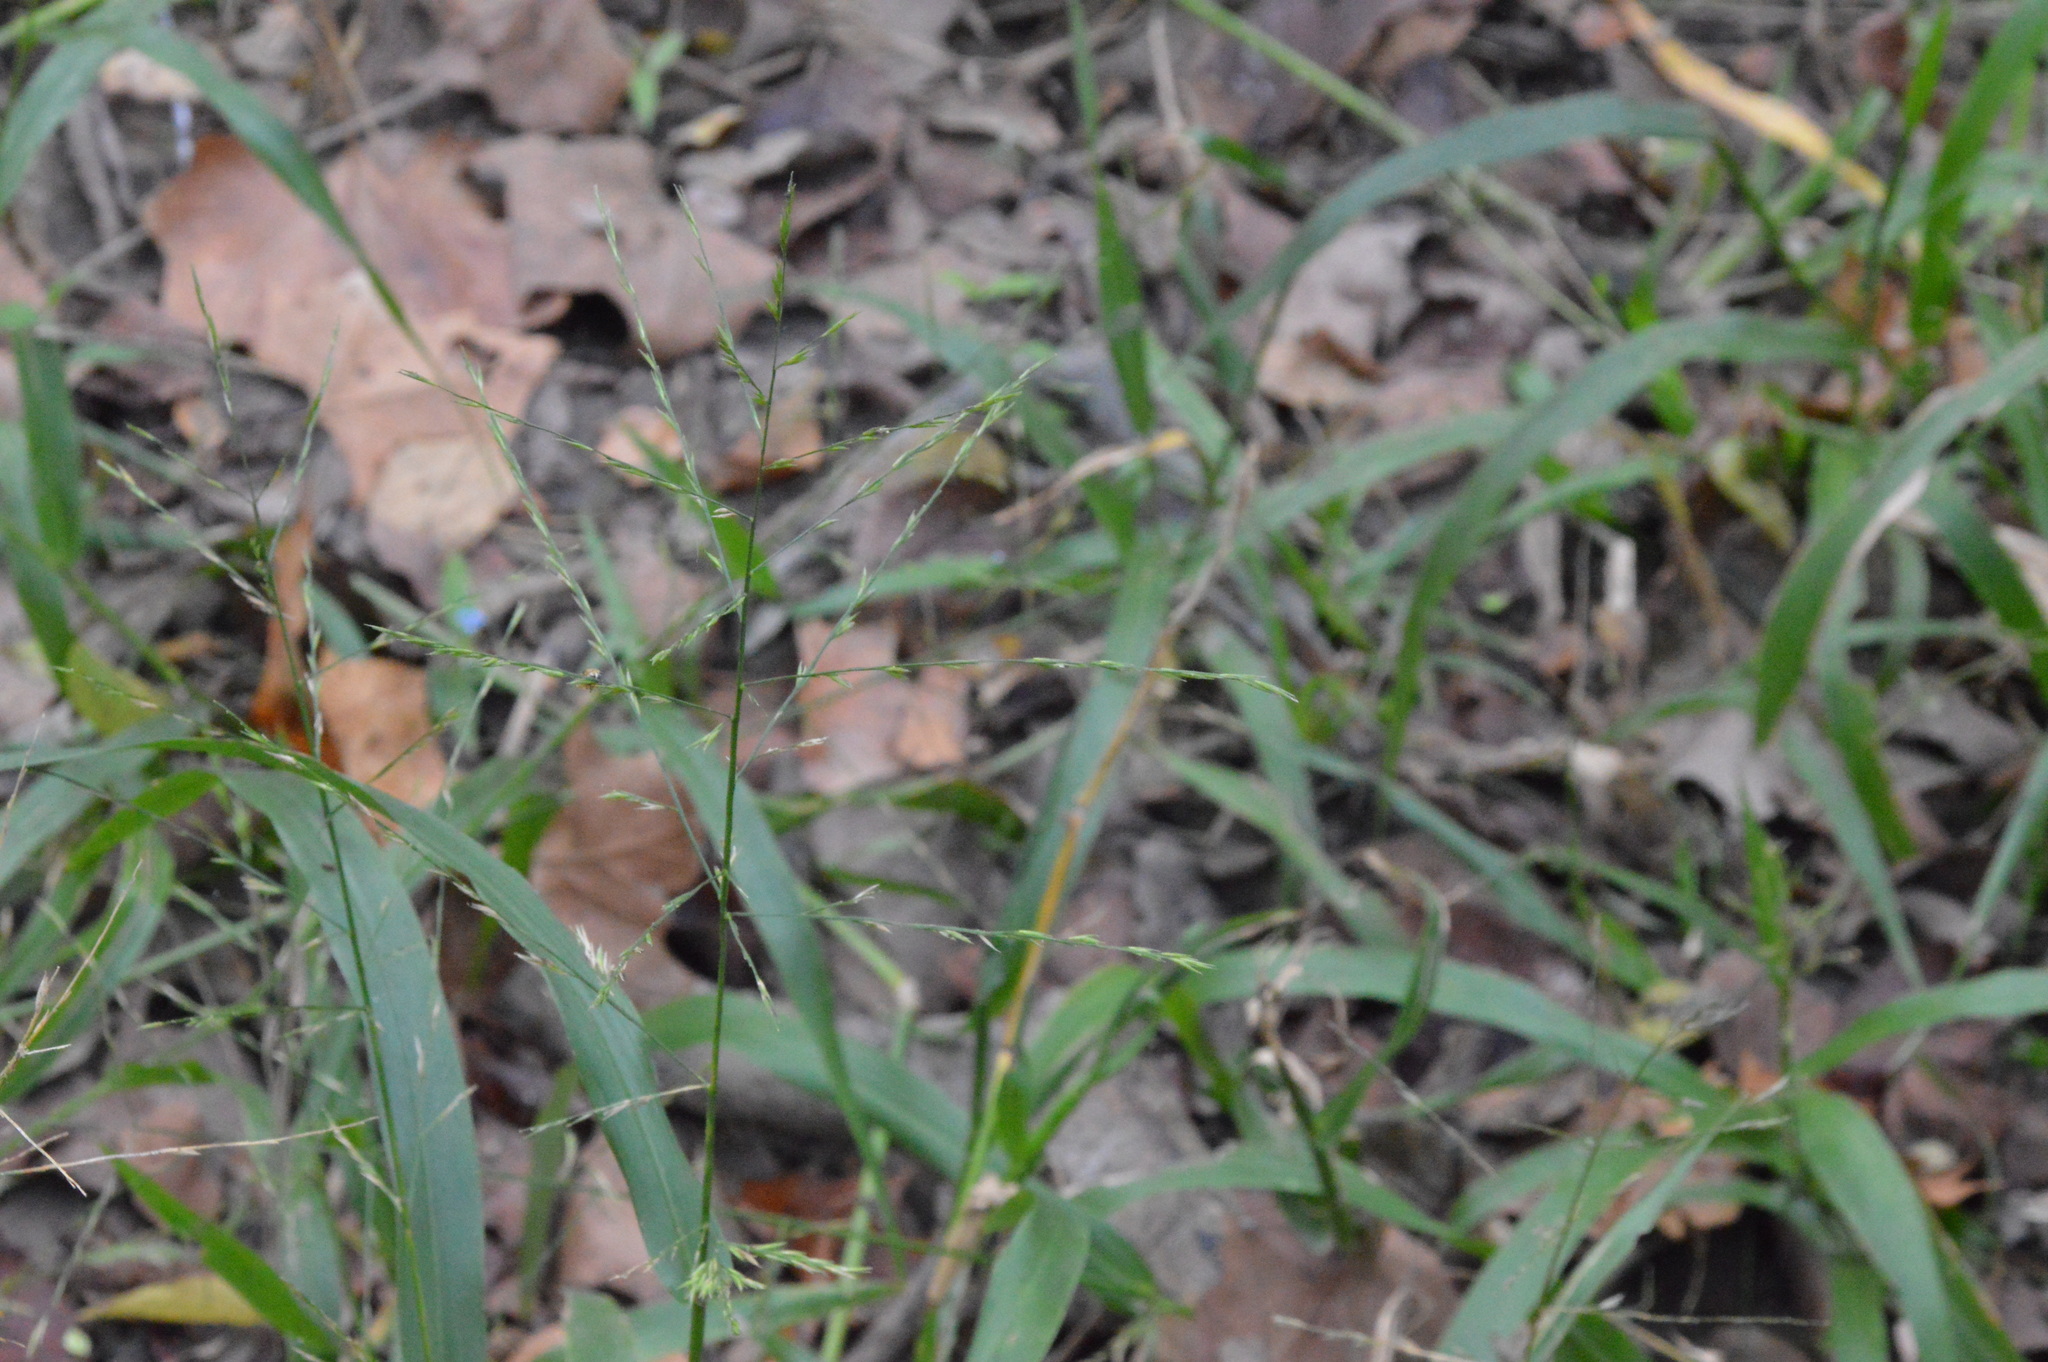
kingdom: Plantae
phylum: Tracheophyta
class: Liliopsida
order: Poales
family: Poaceae
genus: Panicum
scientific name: Panicum gymnocarpon
